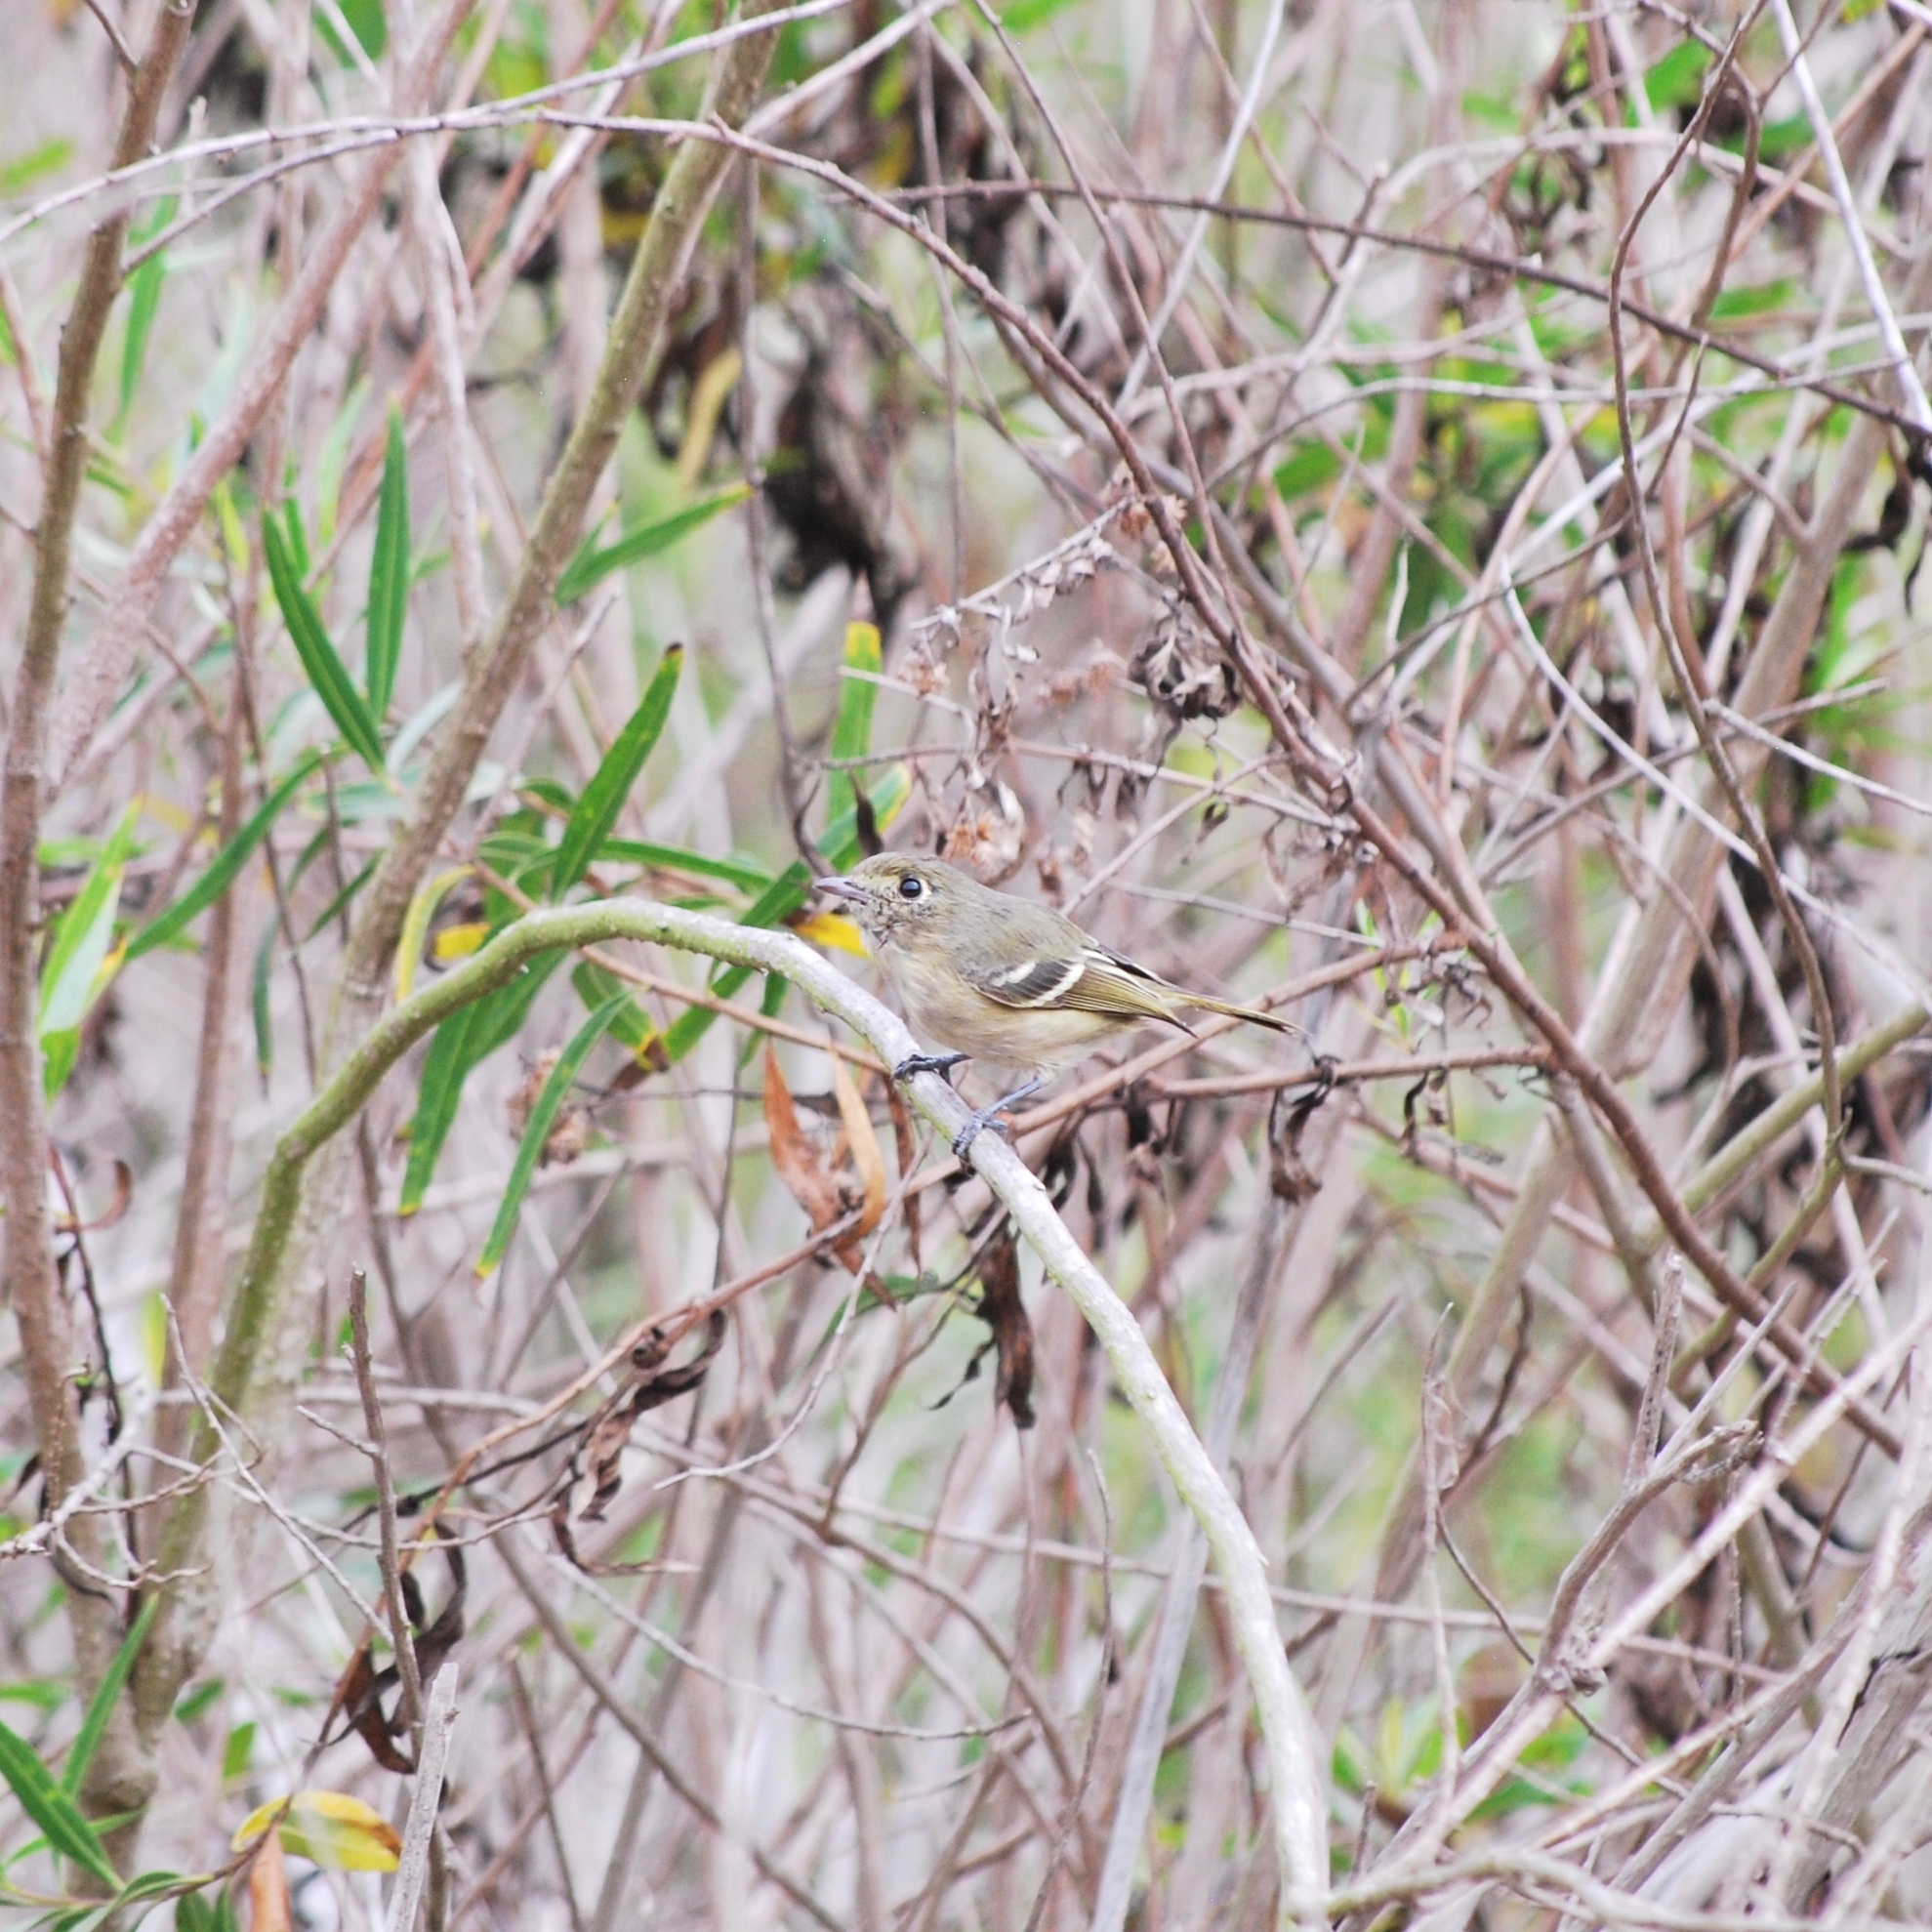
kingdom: Animalia
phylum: Chordata
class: Aves
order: Passeriformes
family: Vireonidae
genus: Vireo
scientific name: Vireo huttoni
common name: Hutton's vireo
